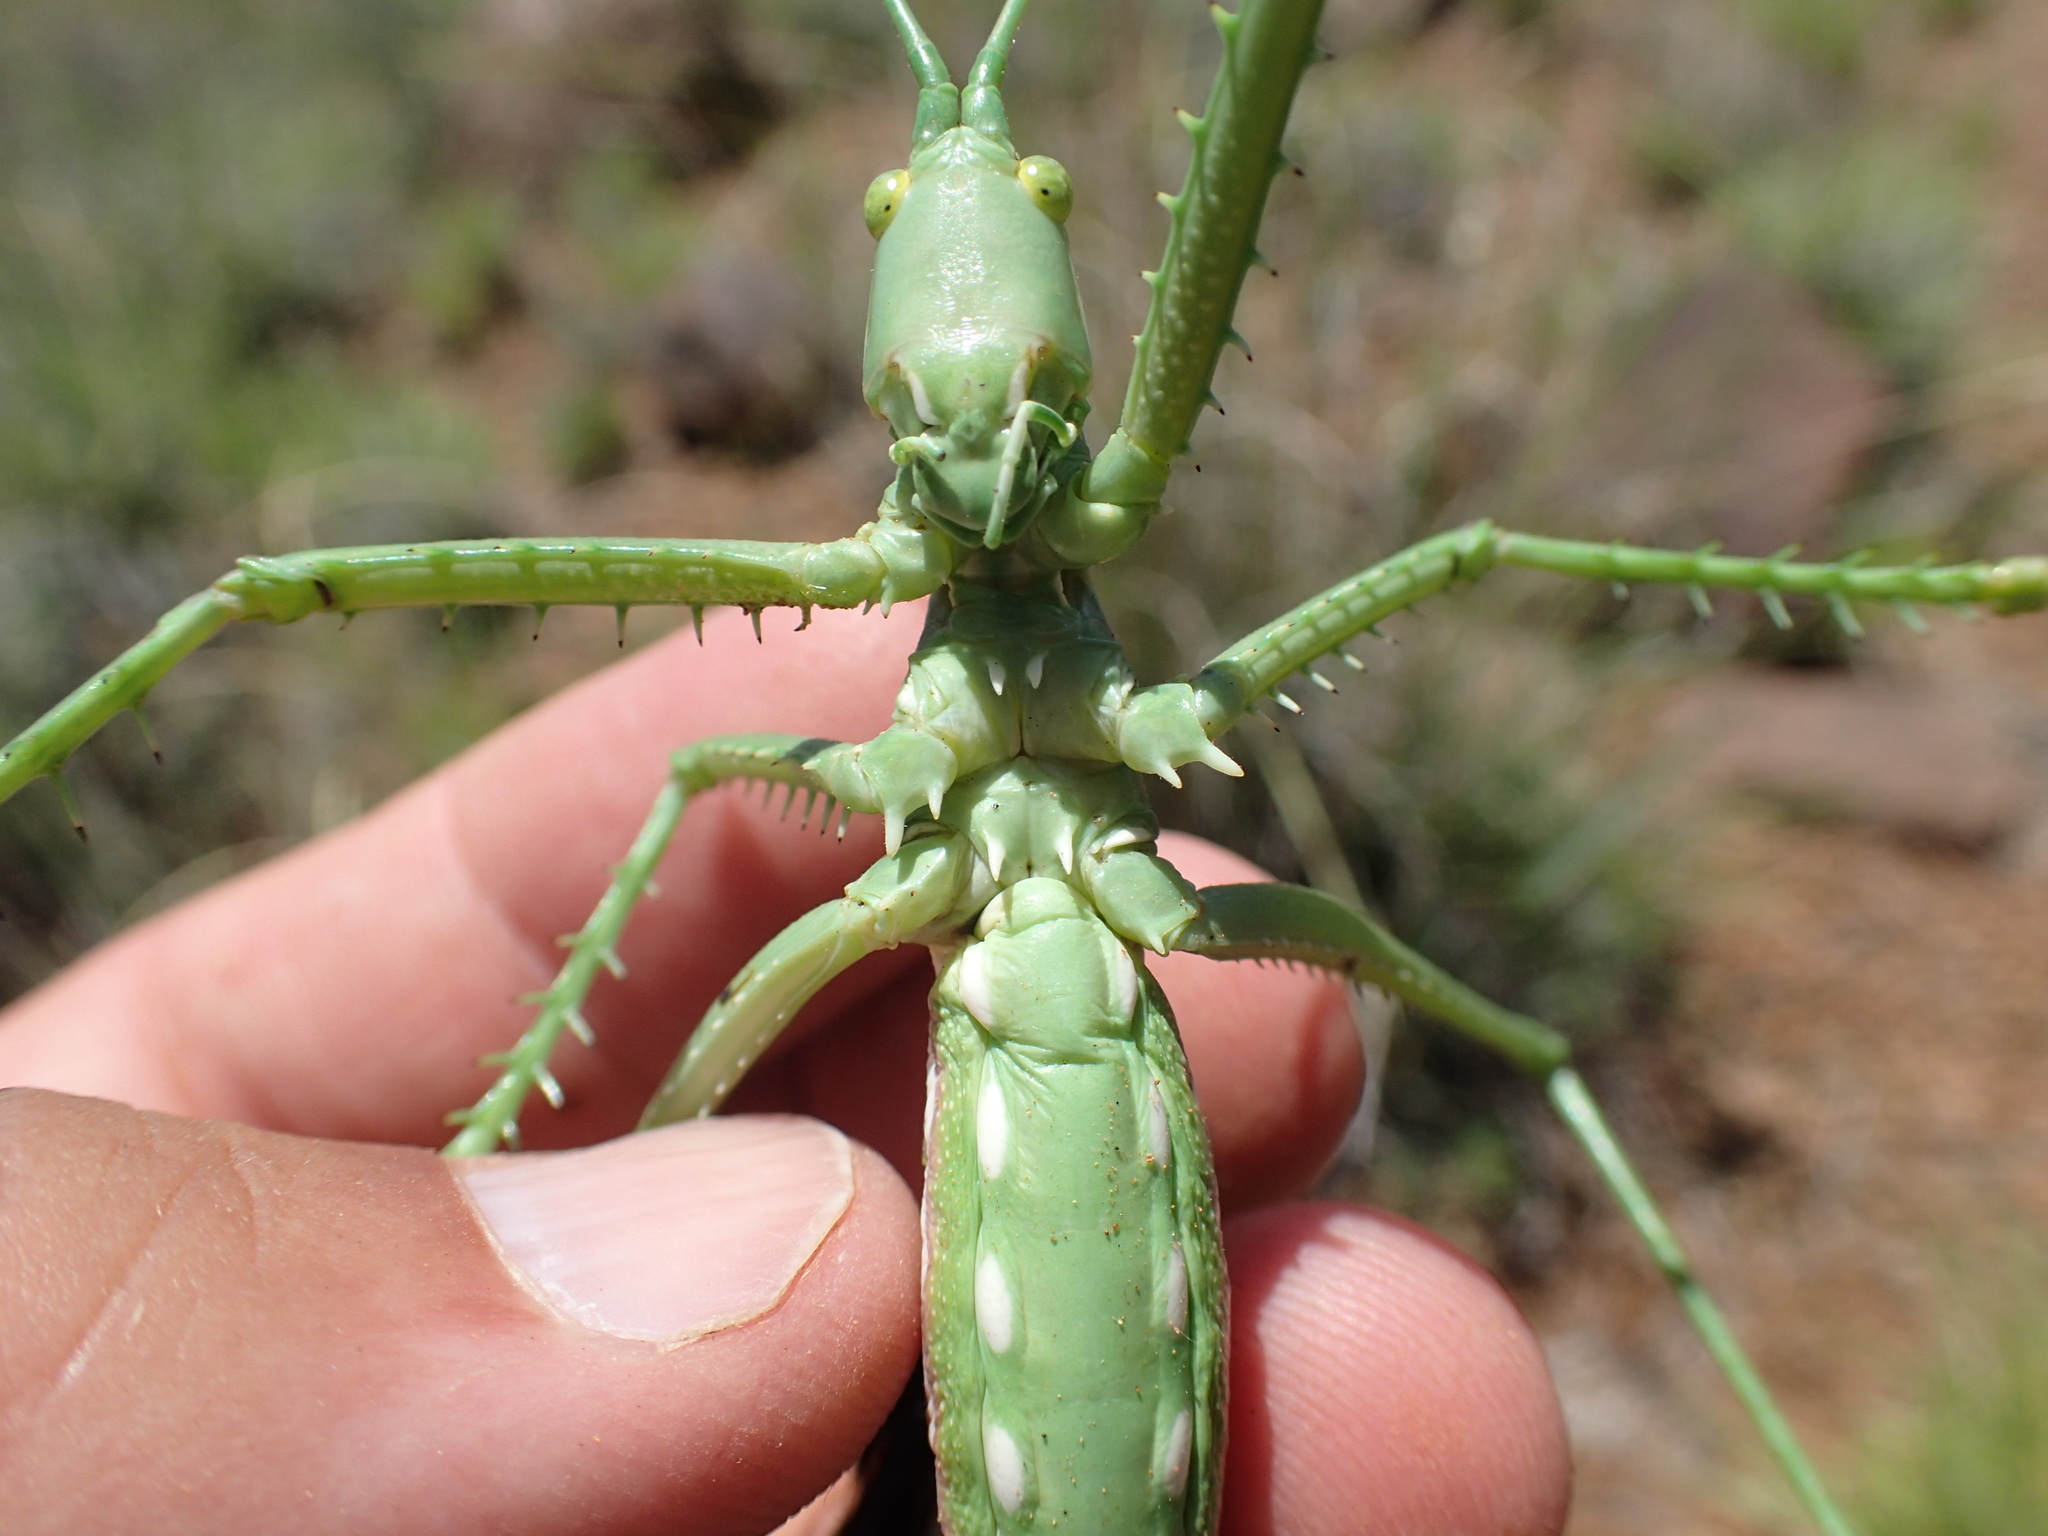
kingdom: Animalia
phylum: Arthropoda
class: Insecta
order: Orthoptera
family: Tettigoniidae
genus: Clonia
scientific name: Clonia wahlbergi
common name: Wahlberg's clonia
